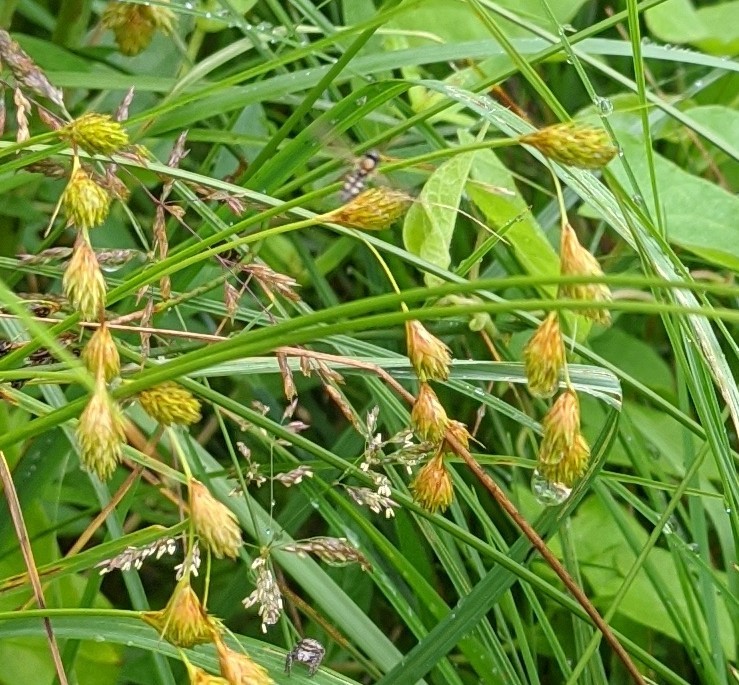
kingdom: Plantae
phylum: Tracheophyta
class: Liliopsida
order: Poales
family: Cyperaceae
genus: Carex
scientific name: Carex hormathodes
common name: Marsh straw sedge
